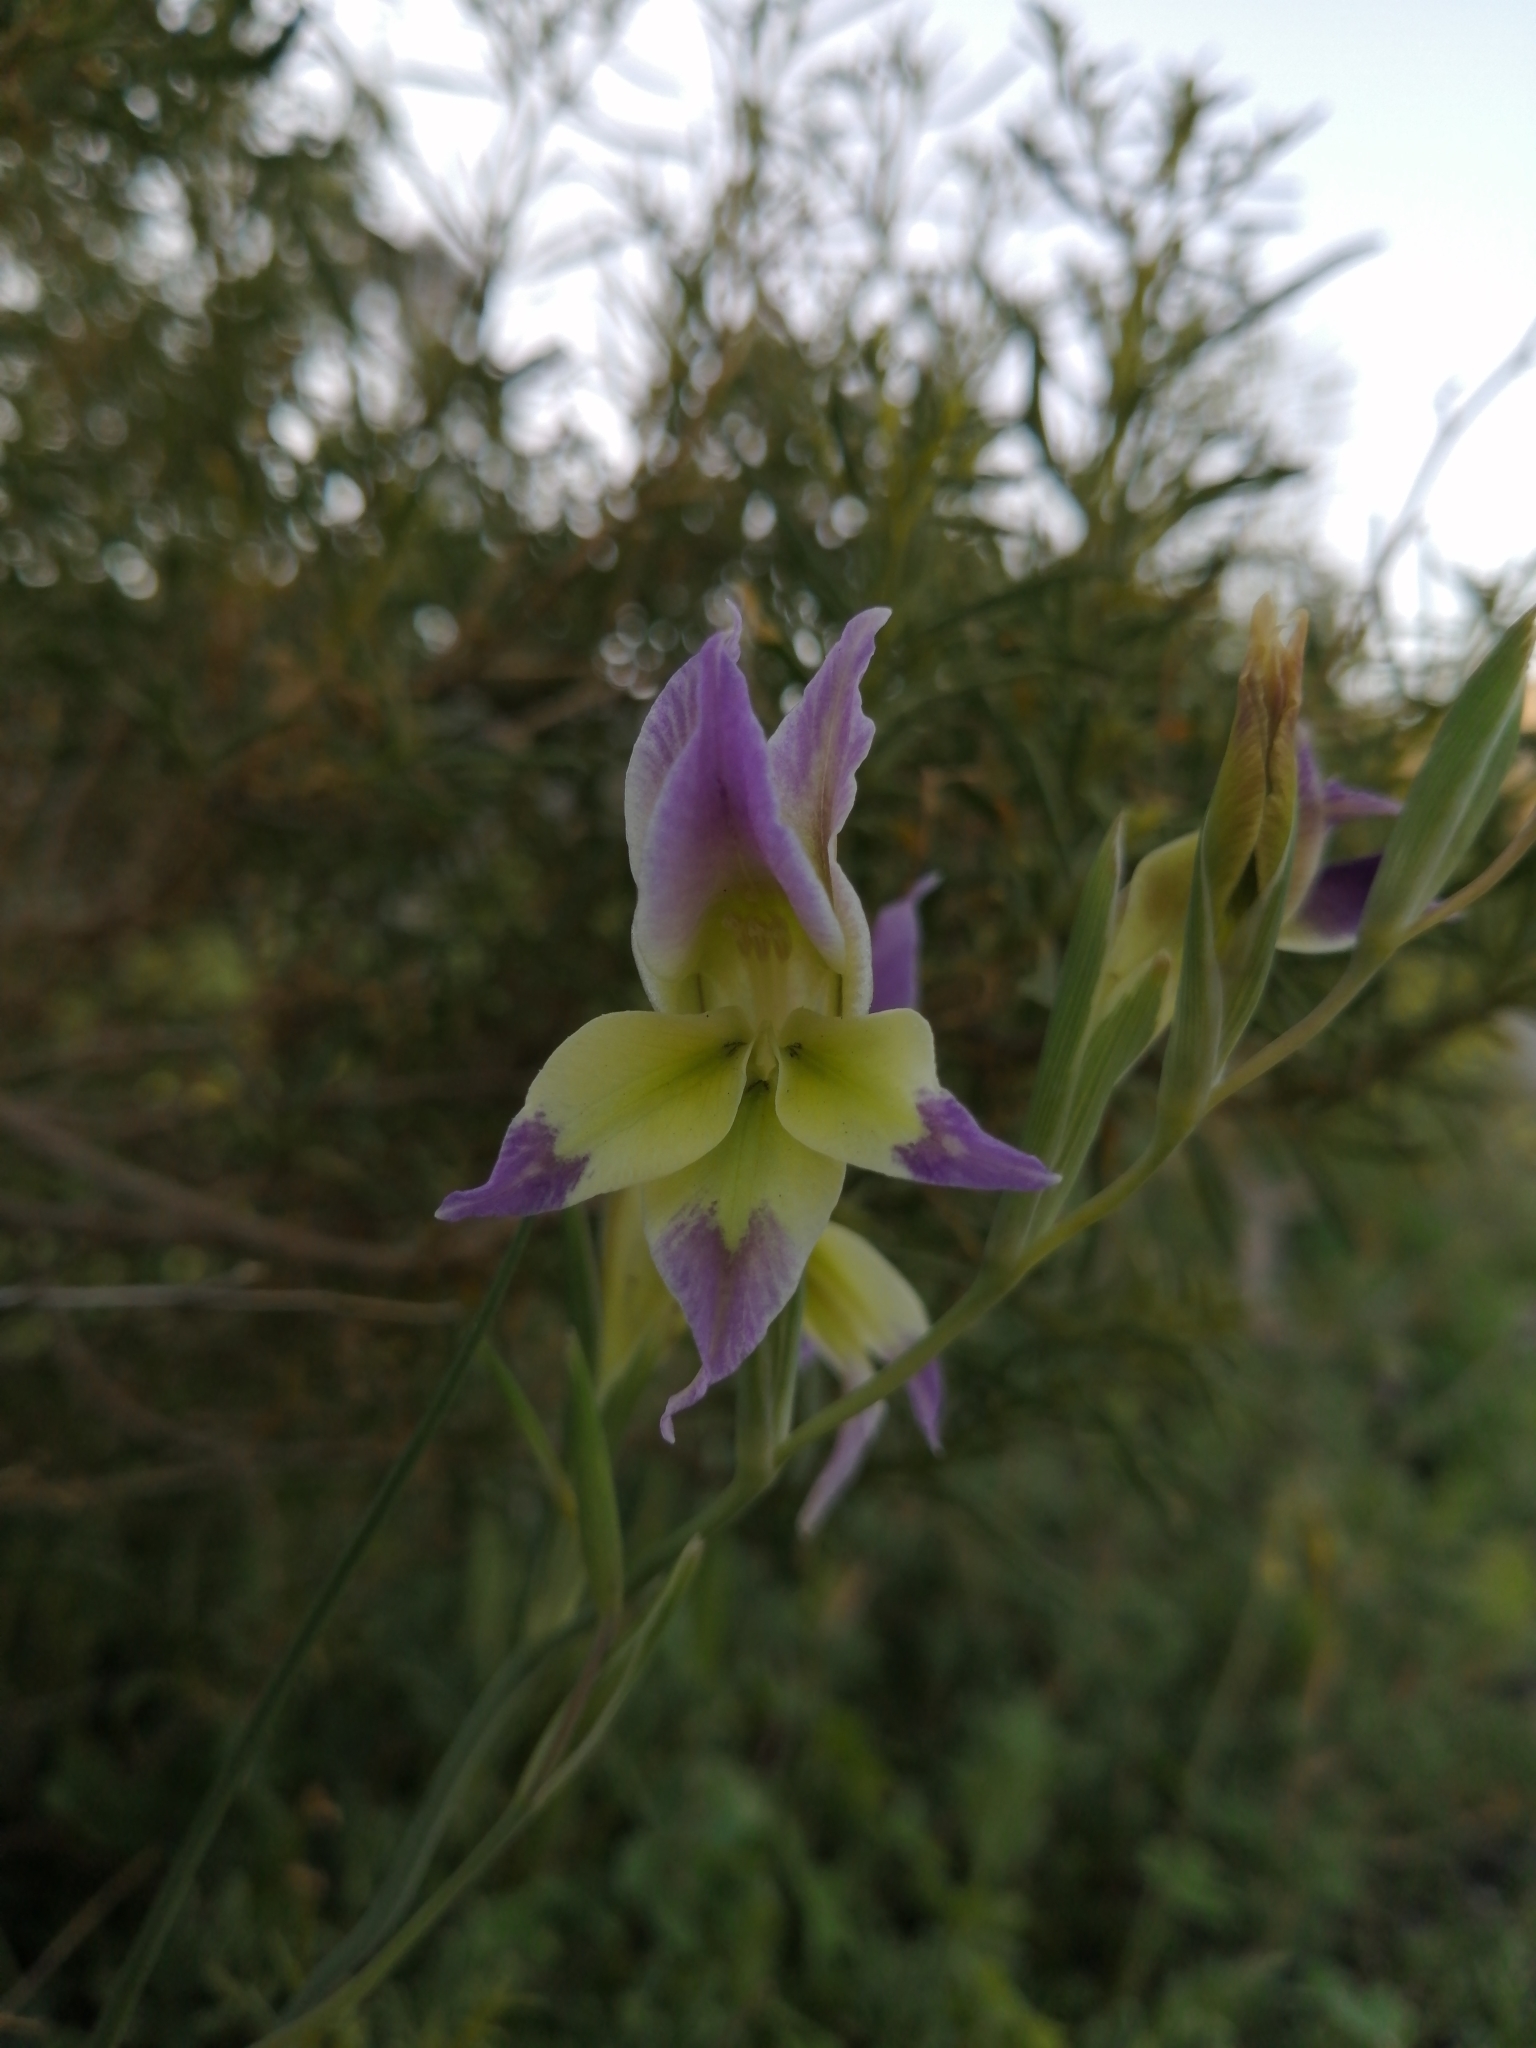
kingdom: Plantae
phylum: Tracheophyta
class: Liliopsida
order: Asparagales
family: Iridaceae
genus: Gladiolus
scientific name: Gladiolus venustus
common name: Purple kalkoentjie
